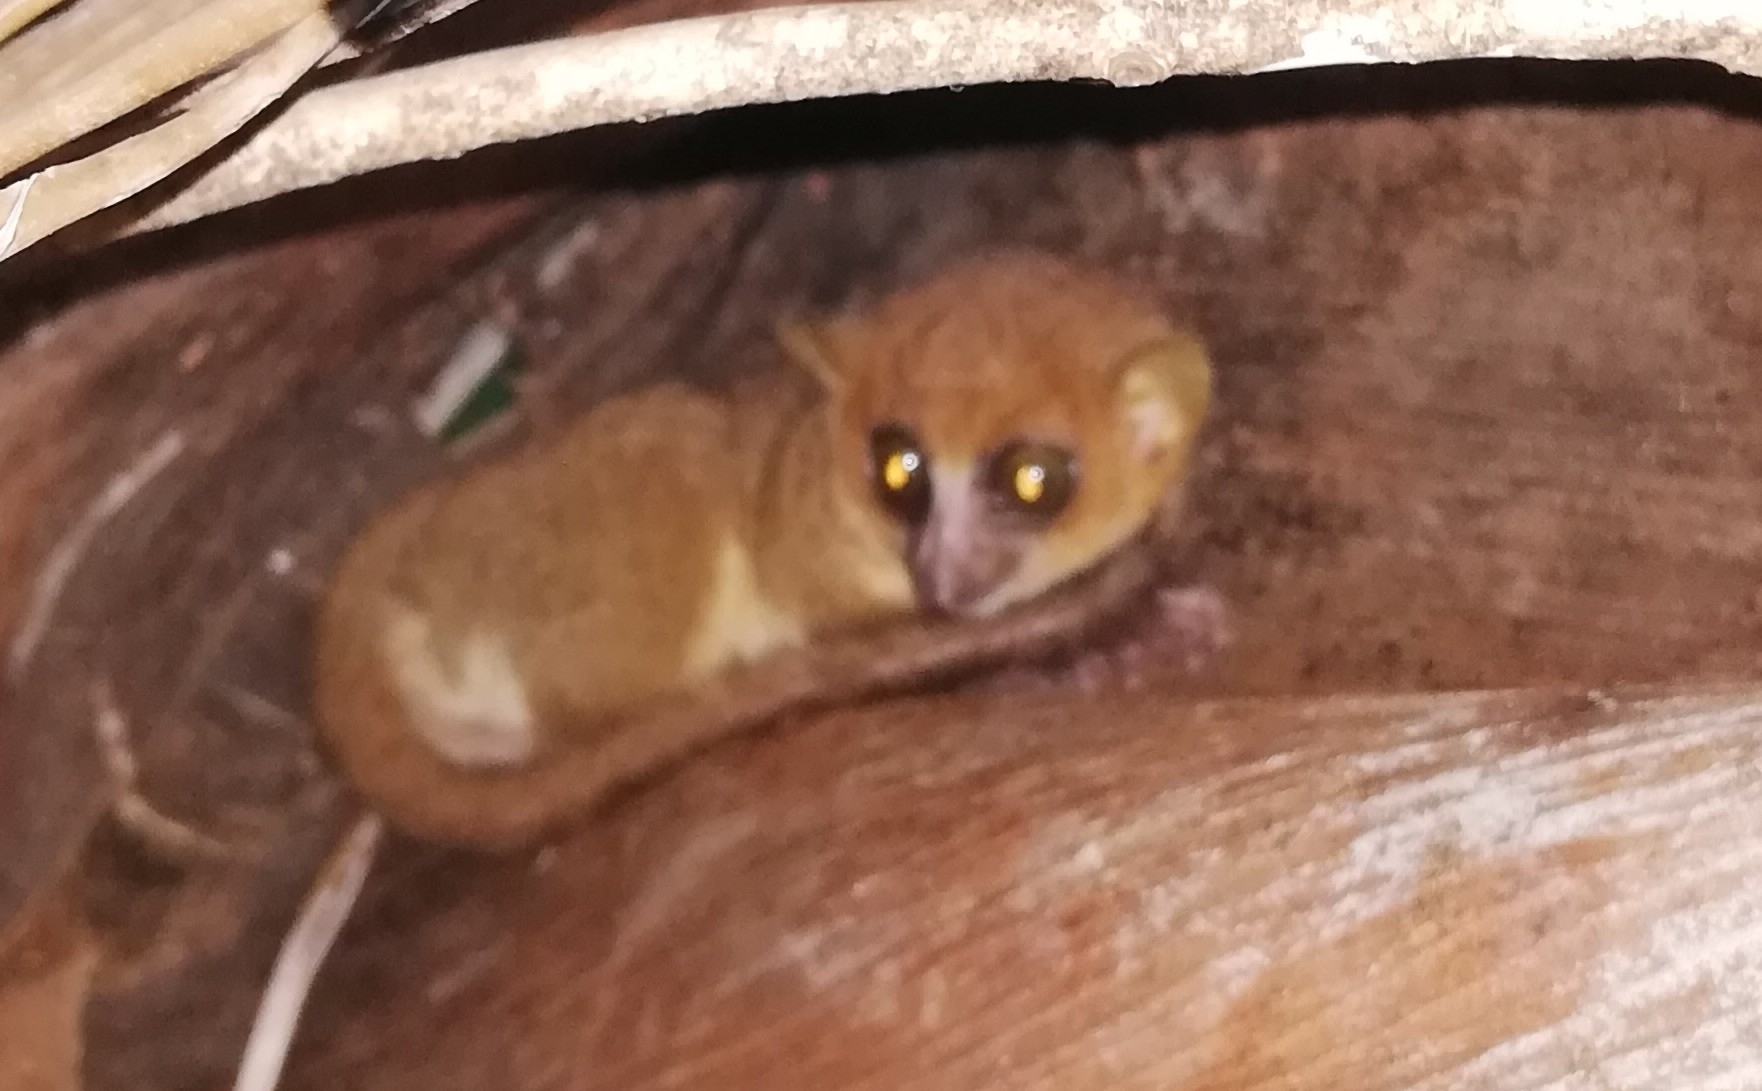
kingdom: Animalia
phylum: Chordata
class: Mammalia
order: Primates
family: Cheirogaleidae
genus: Microcebus
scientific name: Microcebus mamiratra
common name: Nosy be mouse lemur
